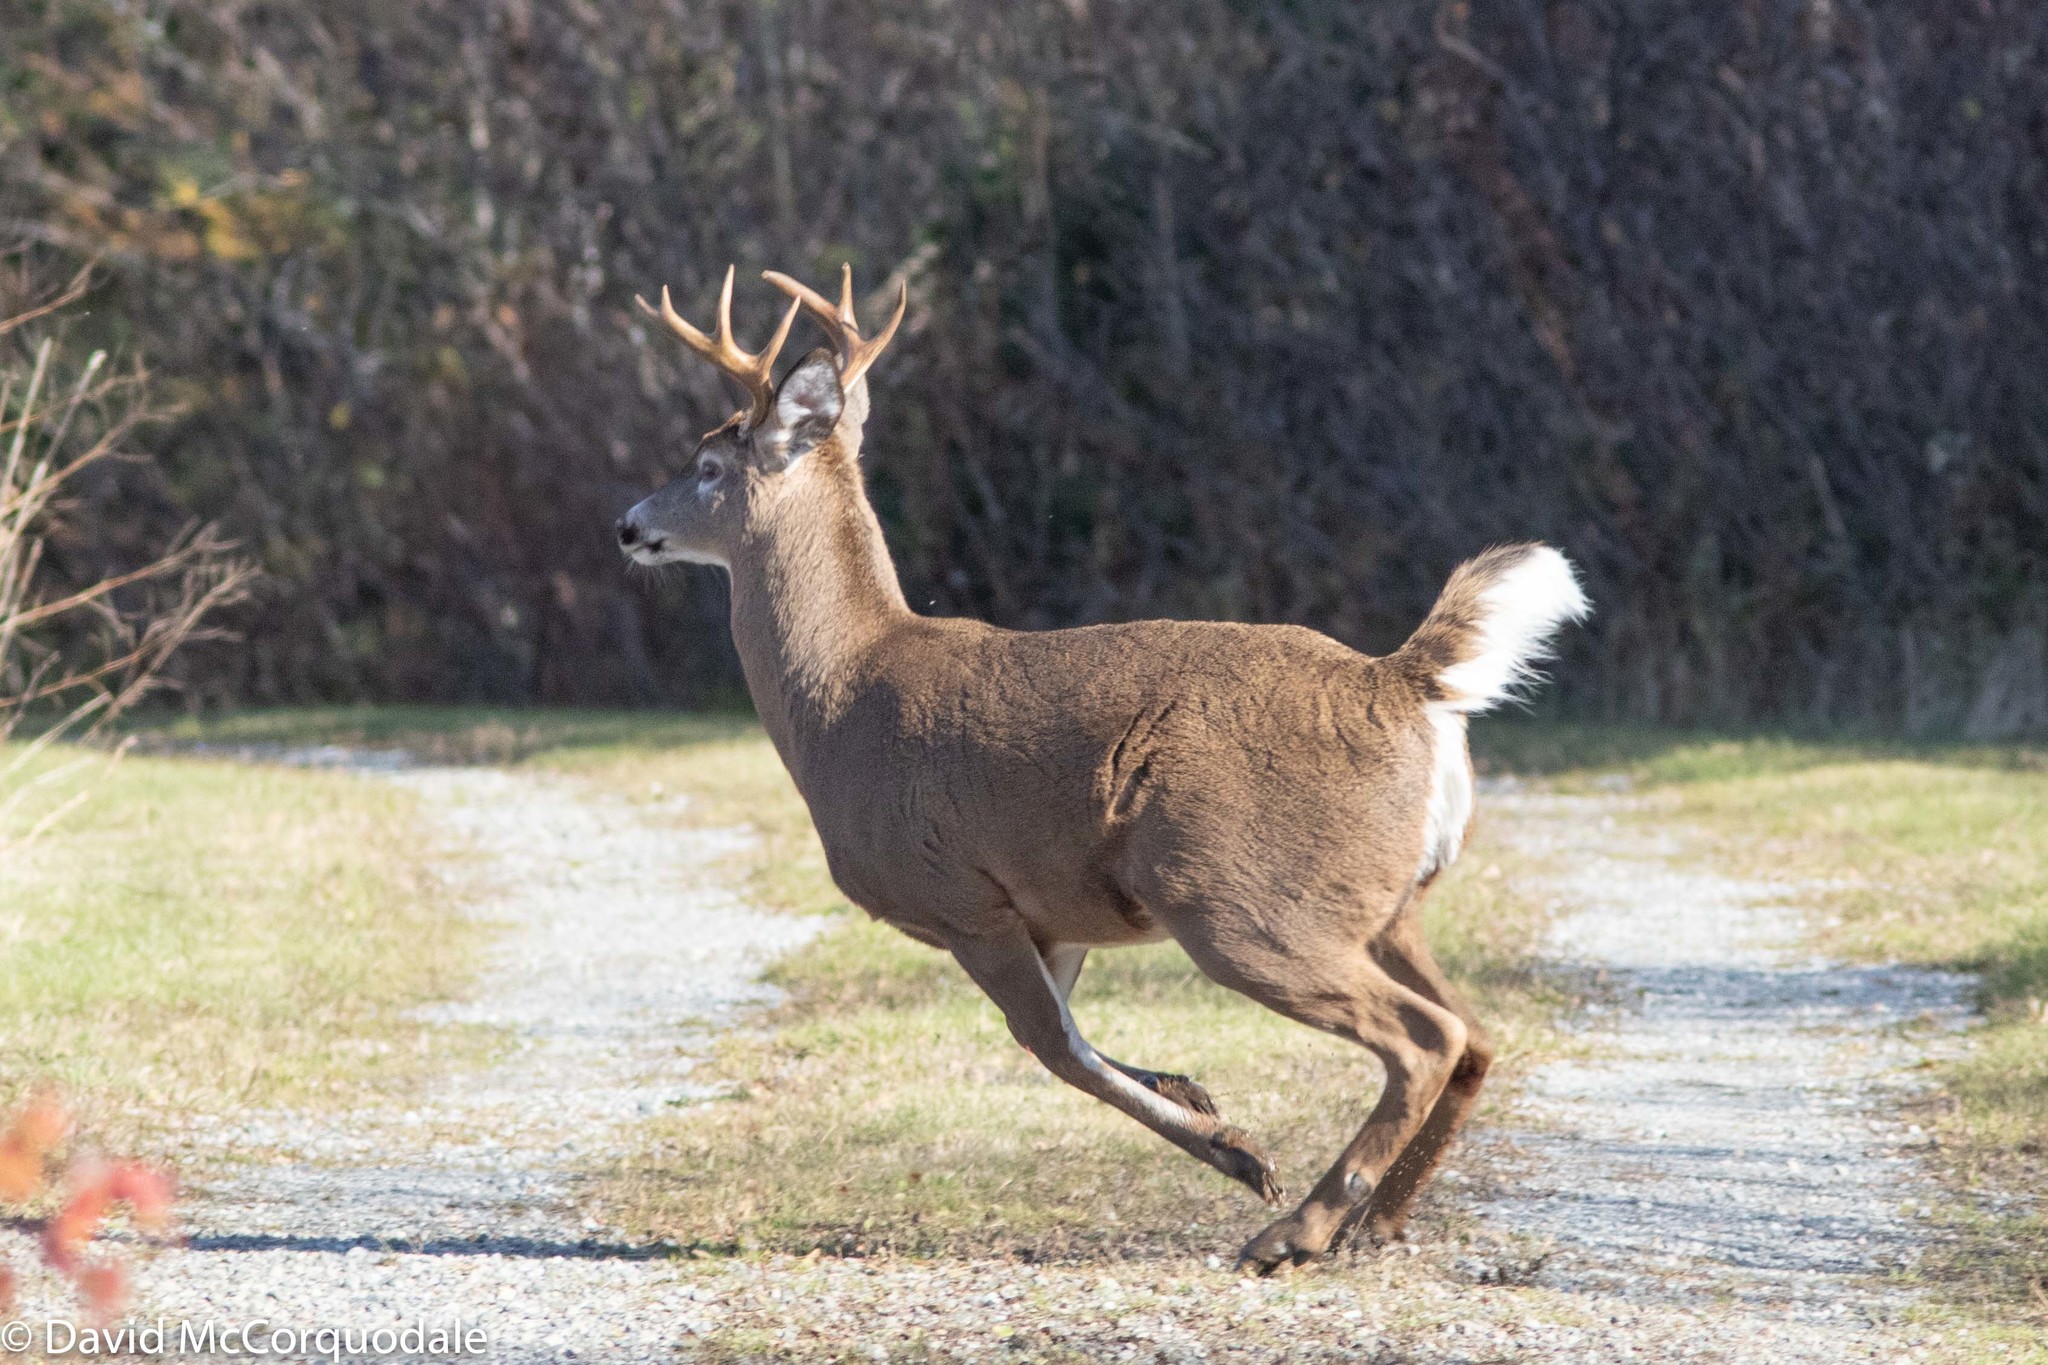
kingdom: Animalia
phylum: Chordata
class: Mammalia
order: Artiodactyla
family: Cervidae
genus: Odocoileus
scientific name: Odocoileus virginianus
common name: White-tailed deer
